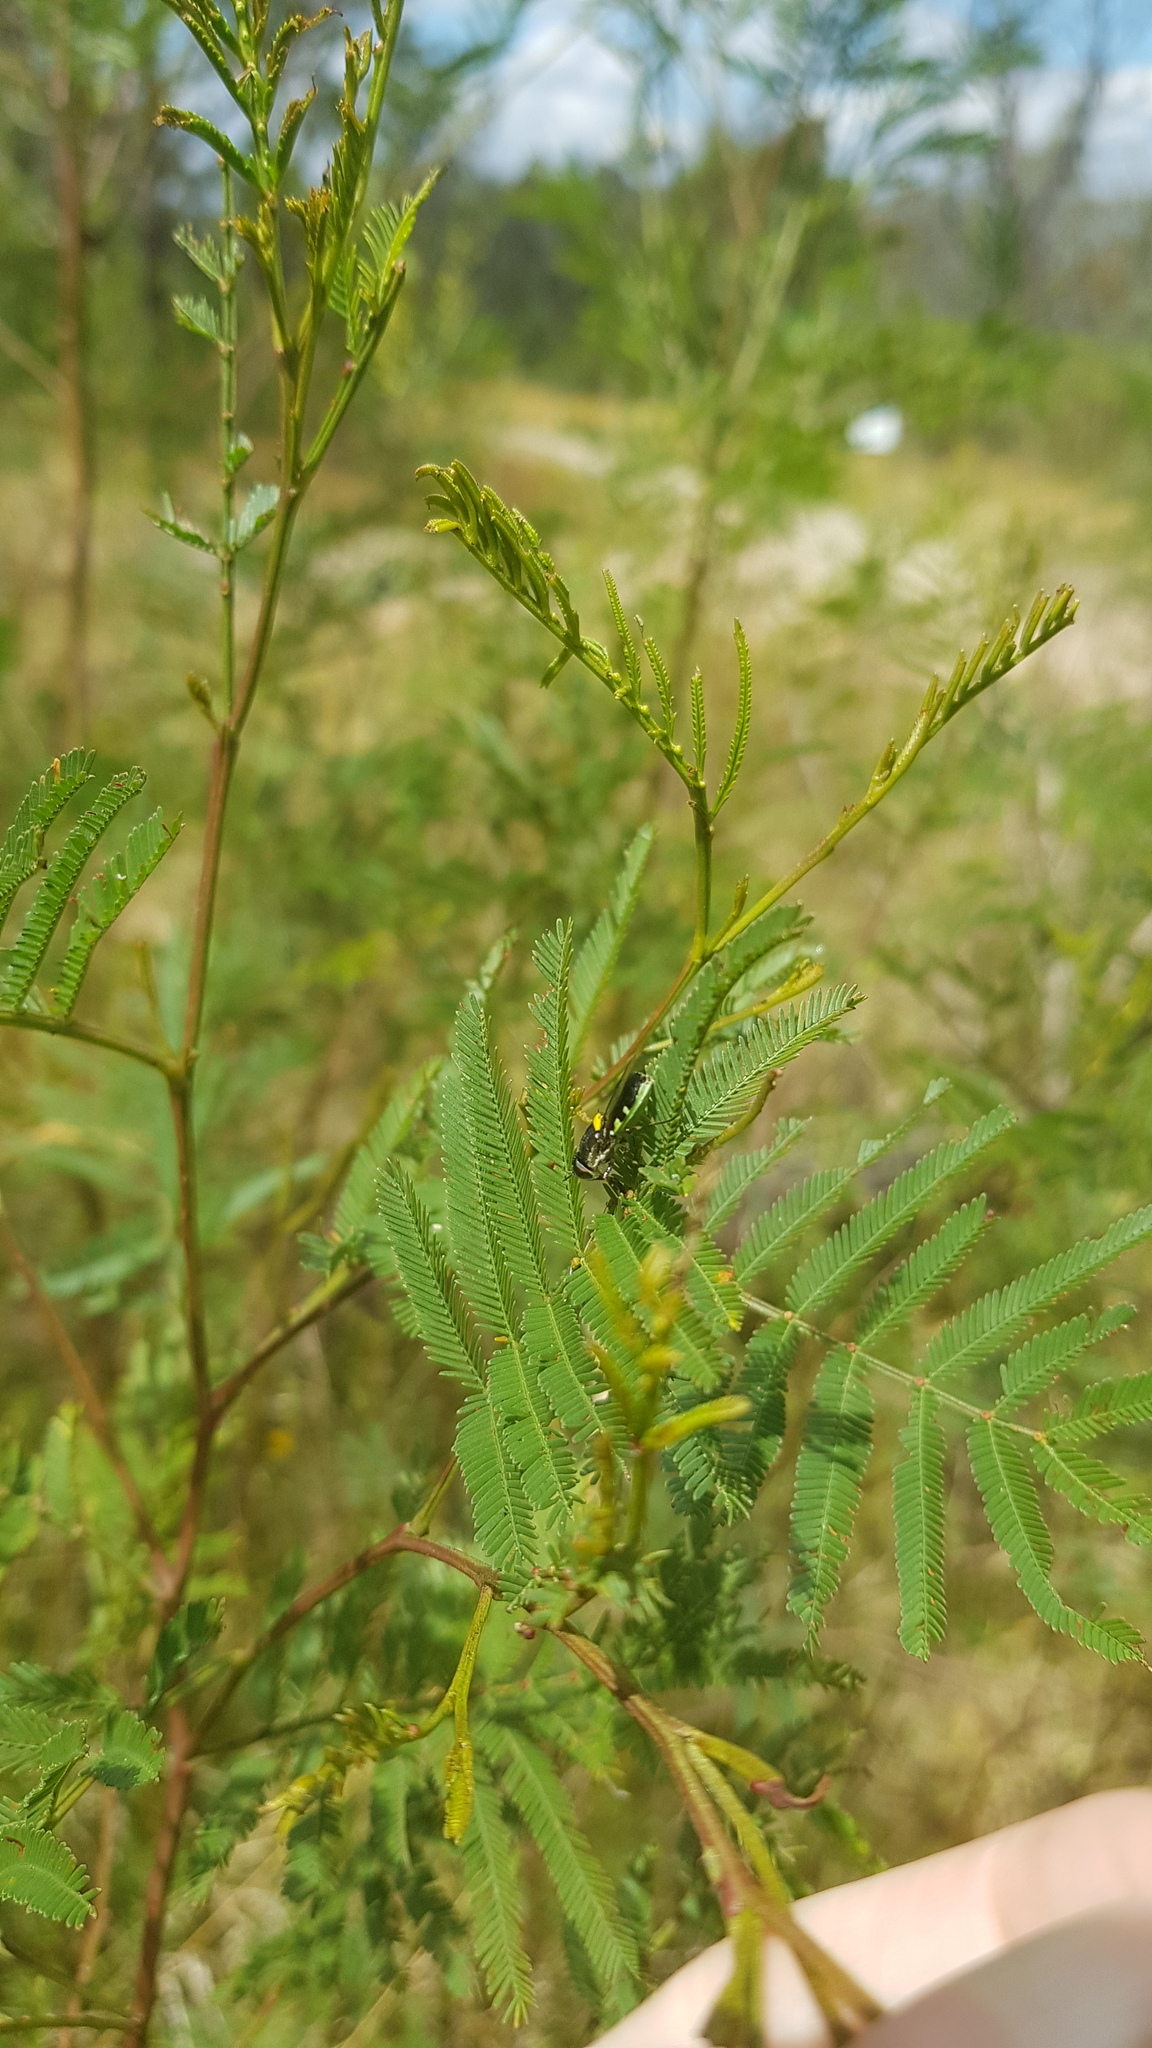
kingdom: Animalia
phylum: Arthropoda
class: Insecta
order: Diptera
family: Stratiomyidae
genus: Odontomyia
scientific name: Odontomyia hunteri
